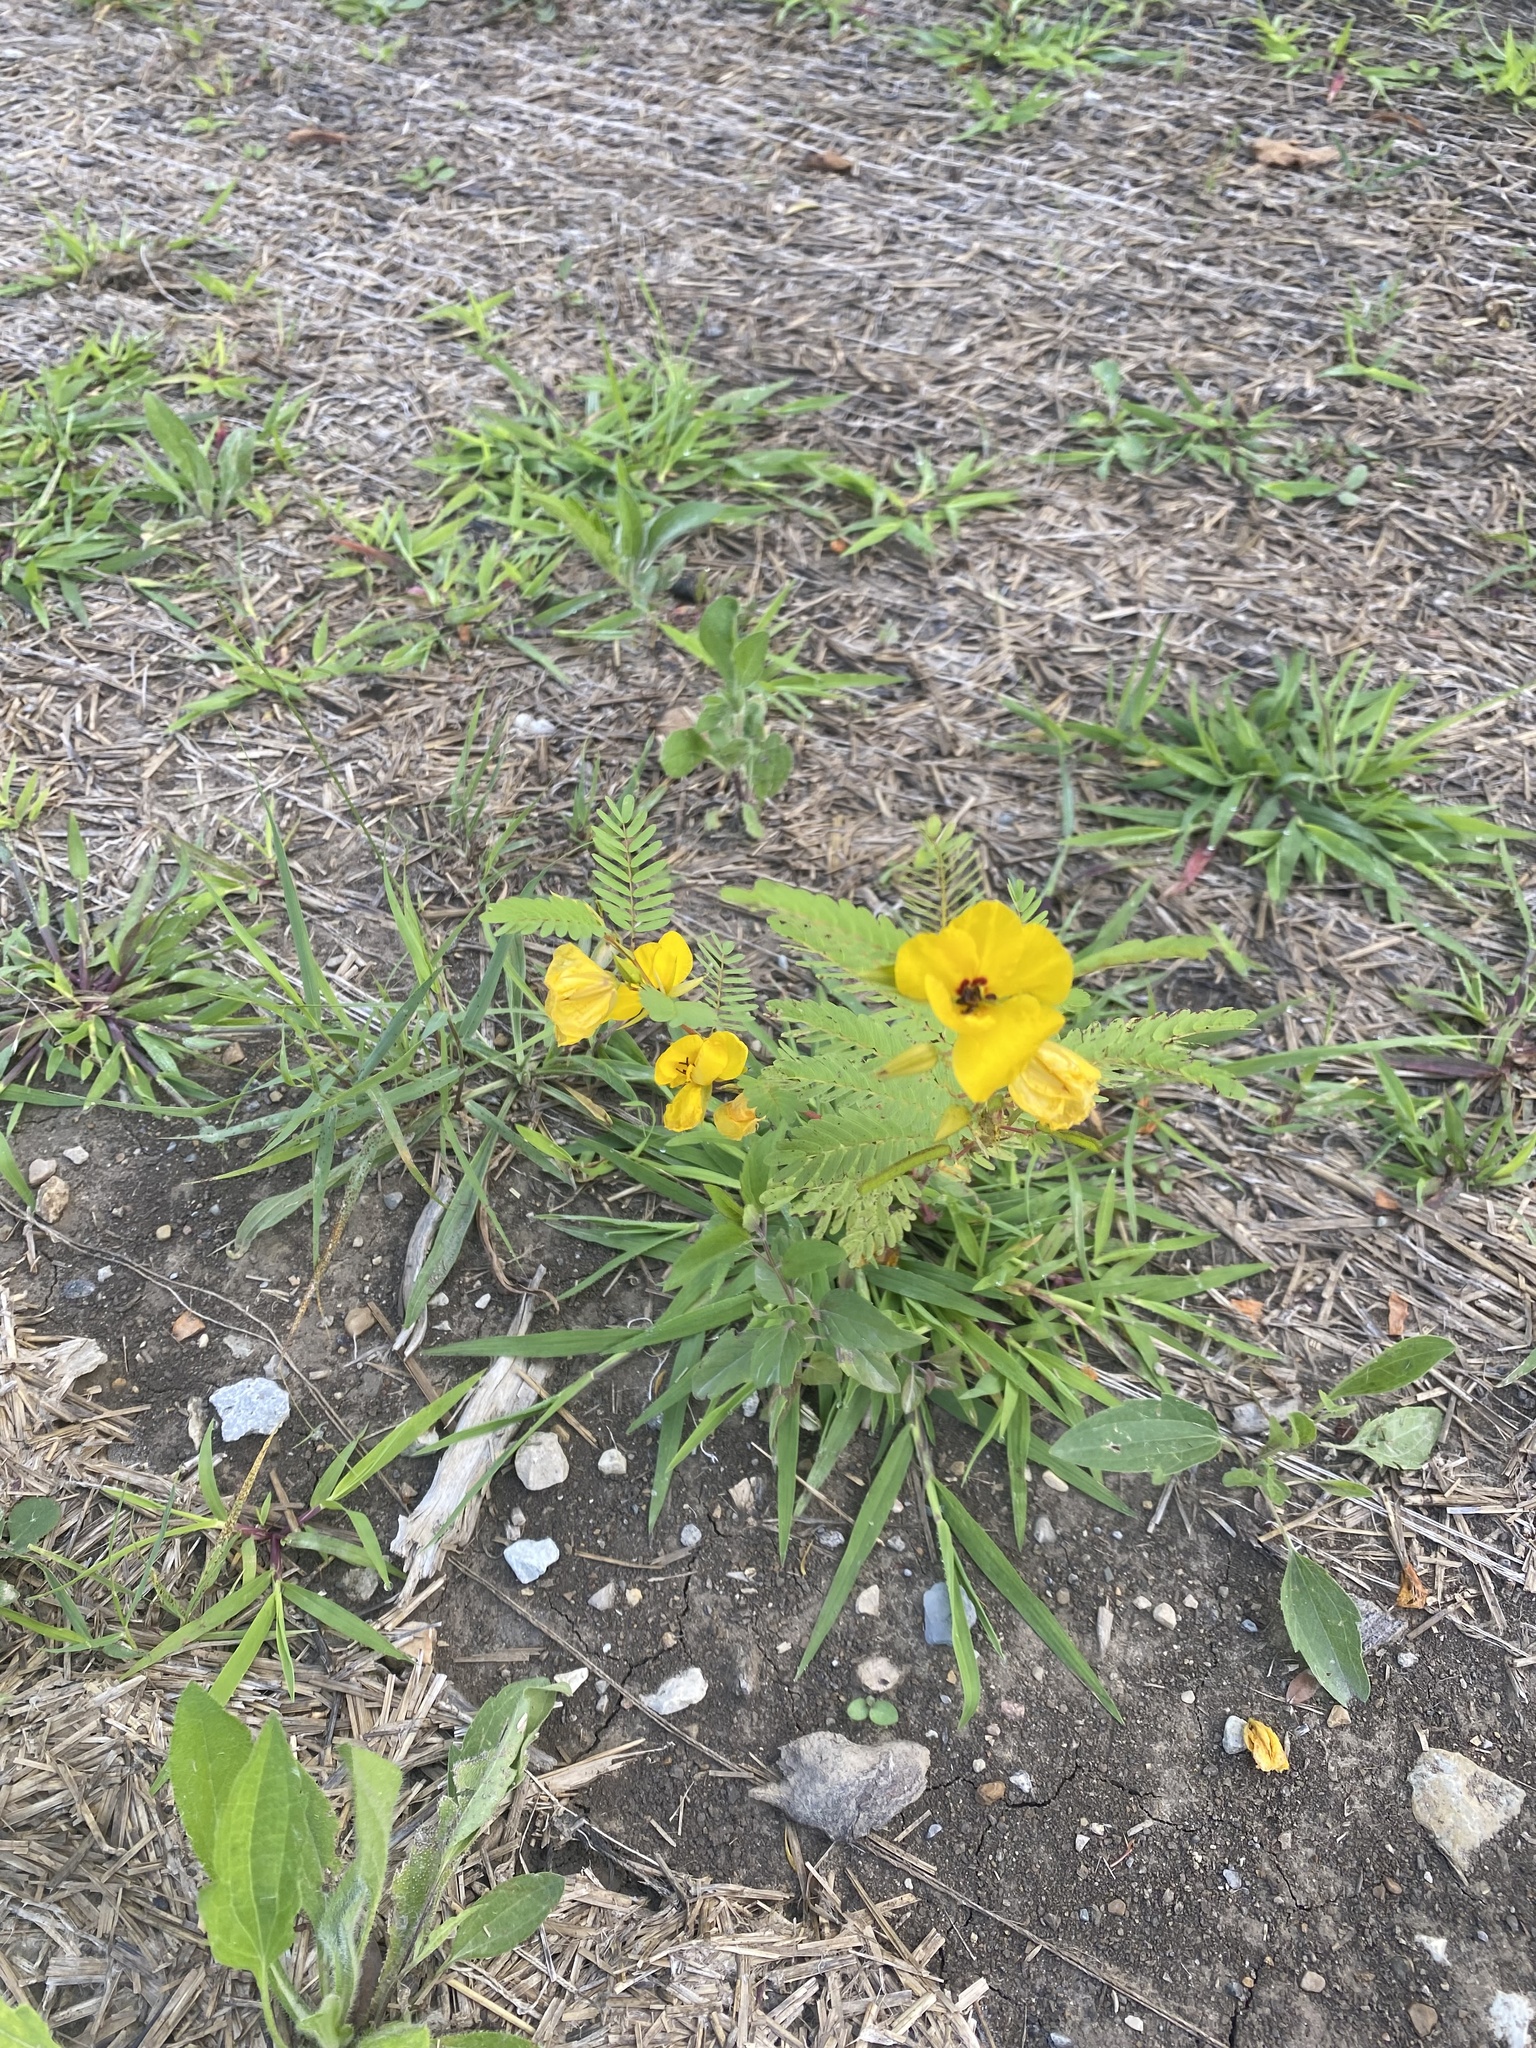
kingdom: Plantae
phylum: Tracheophyta
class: Magnoliopsida
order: Fabales
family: Fabaceae
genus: Chamaecrista
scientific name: Chamaecrista fasciculata
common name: Golden cassia
